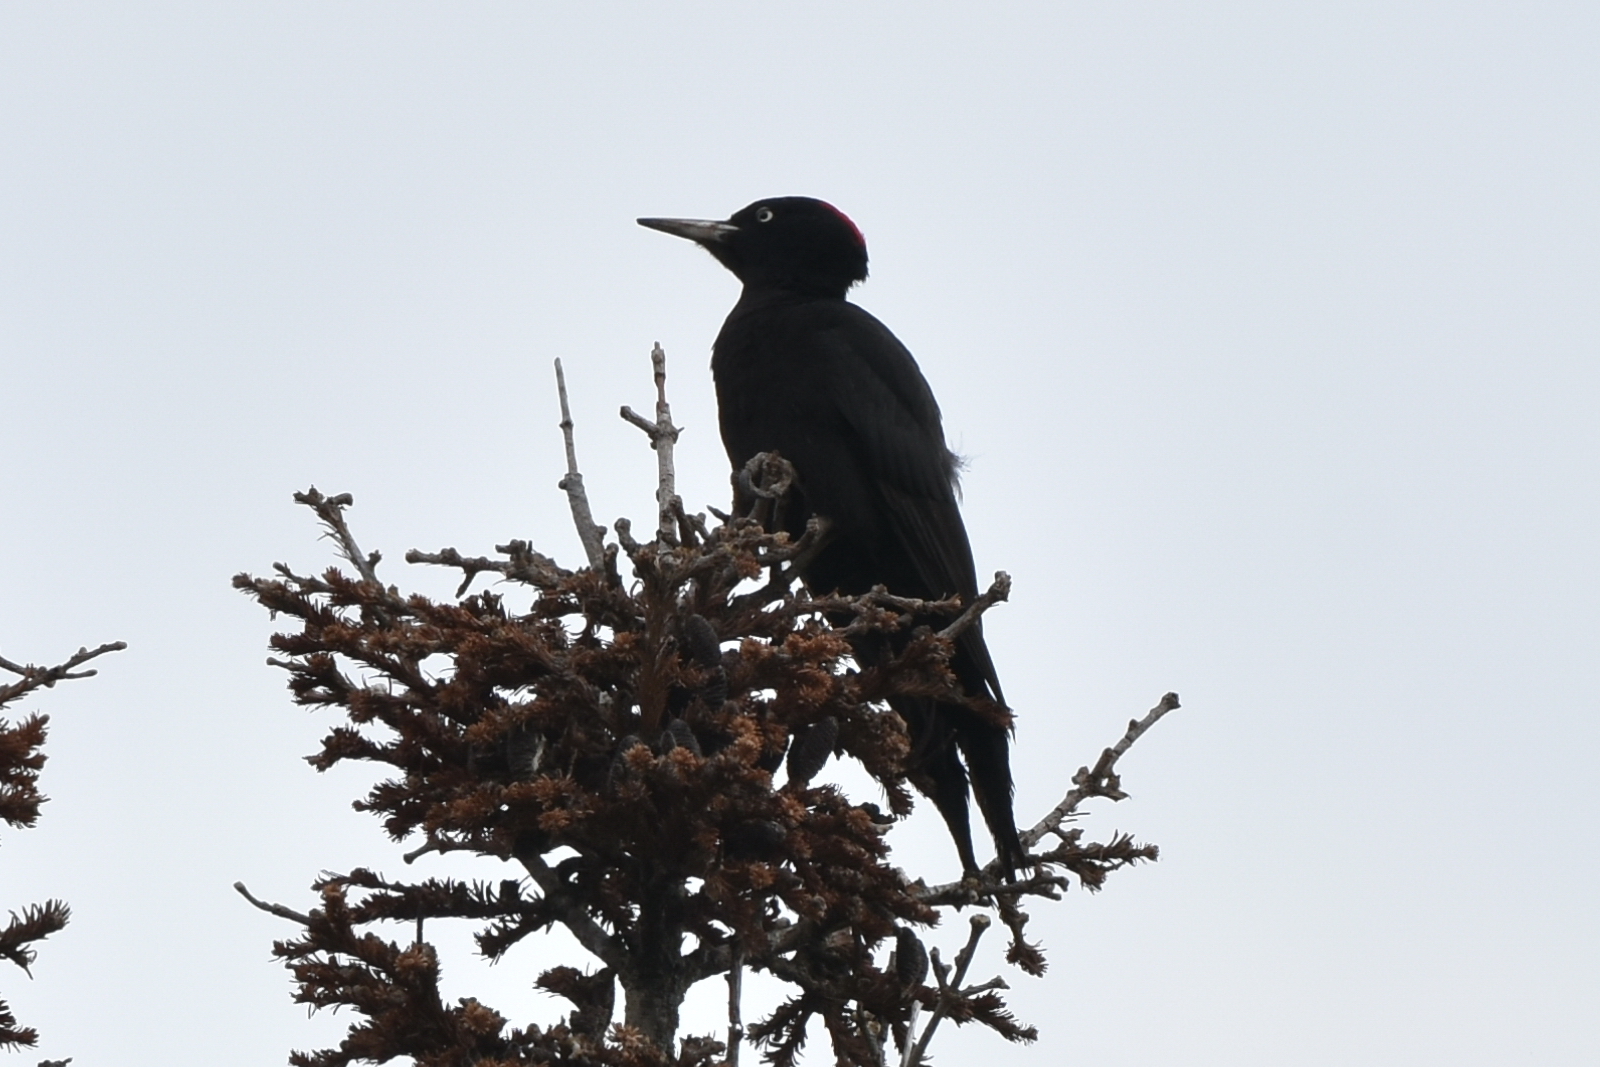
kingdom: Animalia
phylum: Chordata
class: Aves
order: Piciformes
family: Picidae
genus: Dryocopus
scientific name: Dryocopus martius
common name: Black woodpecker
